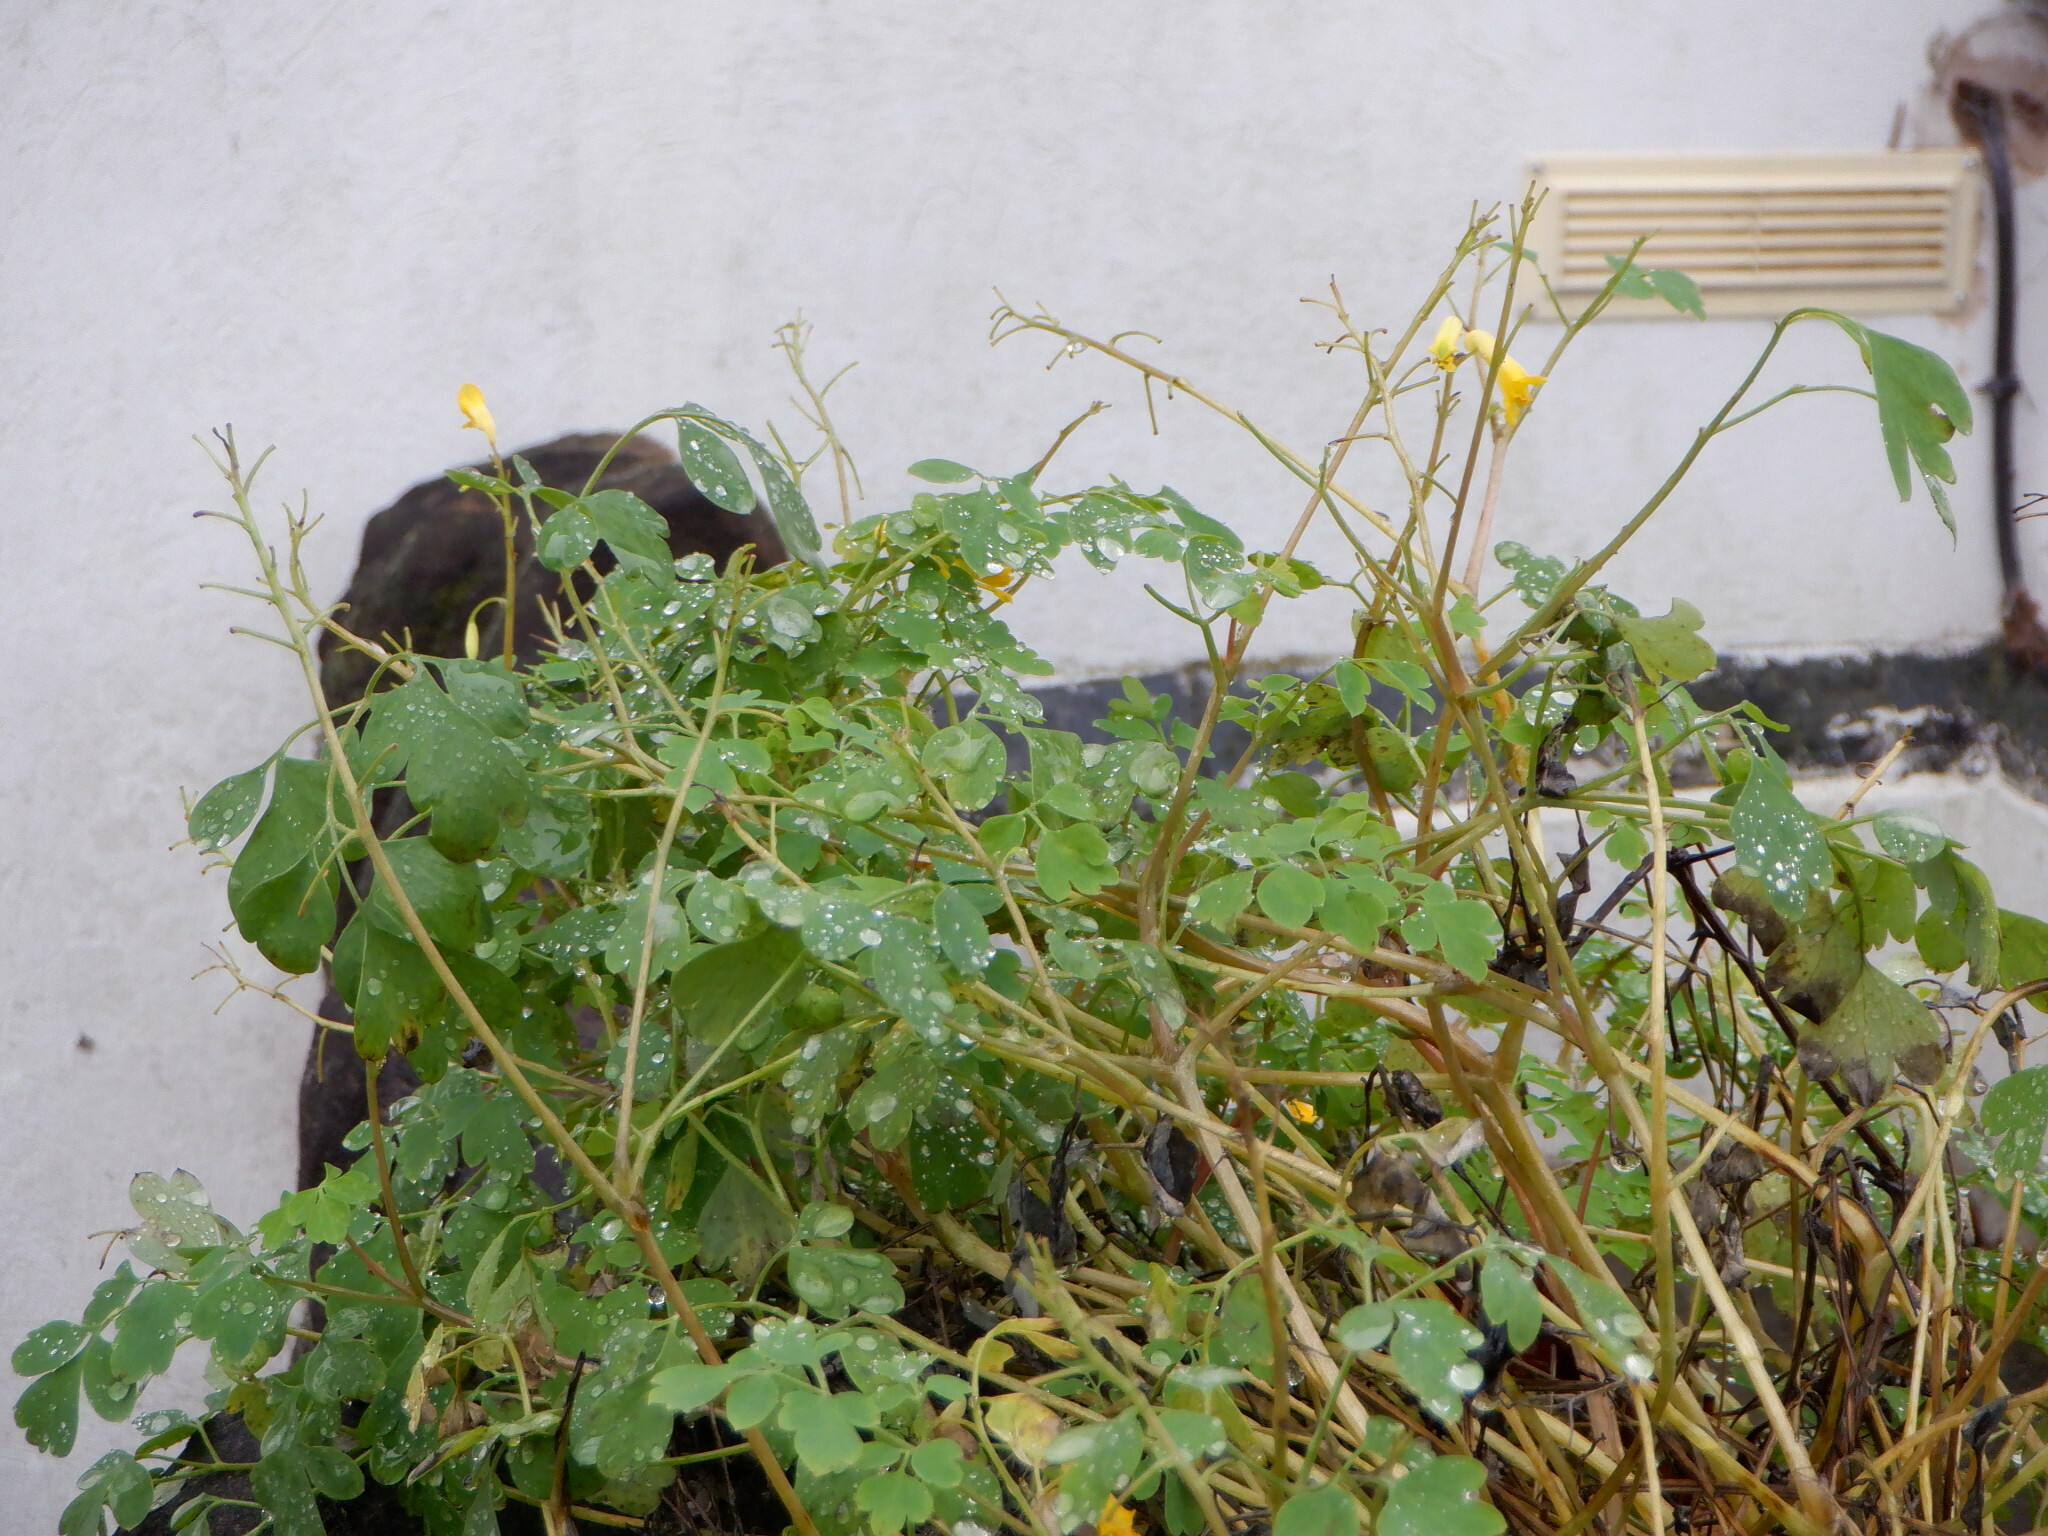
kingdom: Plantae
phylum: Tracheophyta
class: Magnoliopsida
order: Ranunculales
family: Papaveraceae
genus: Pseudofumaria
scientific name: Pseudofumaria lutea
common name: Yellow corydalis
